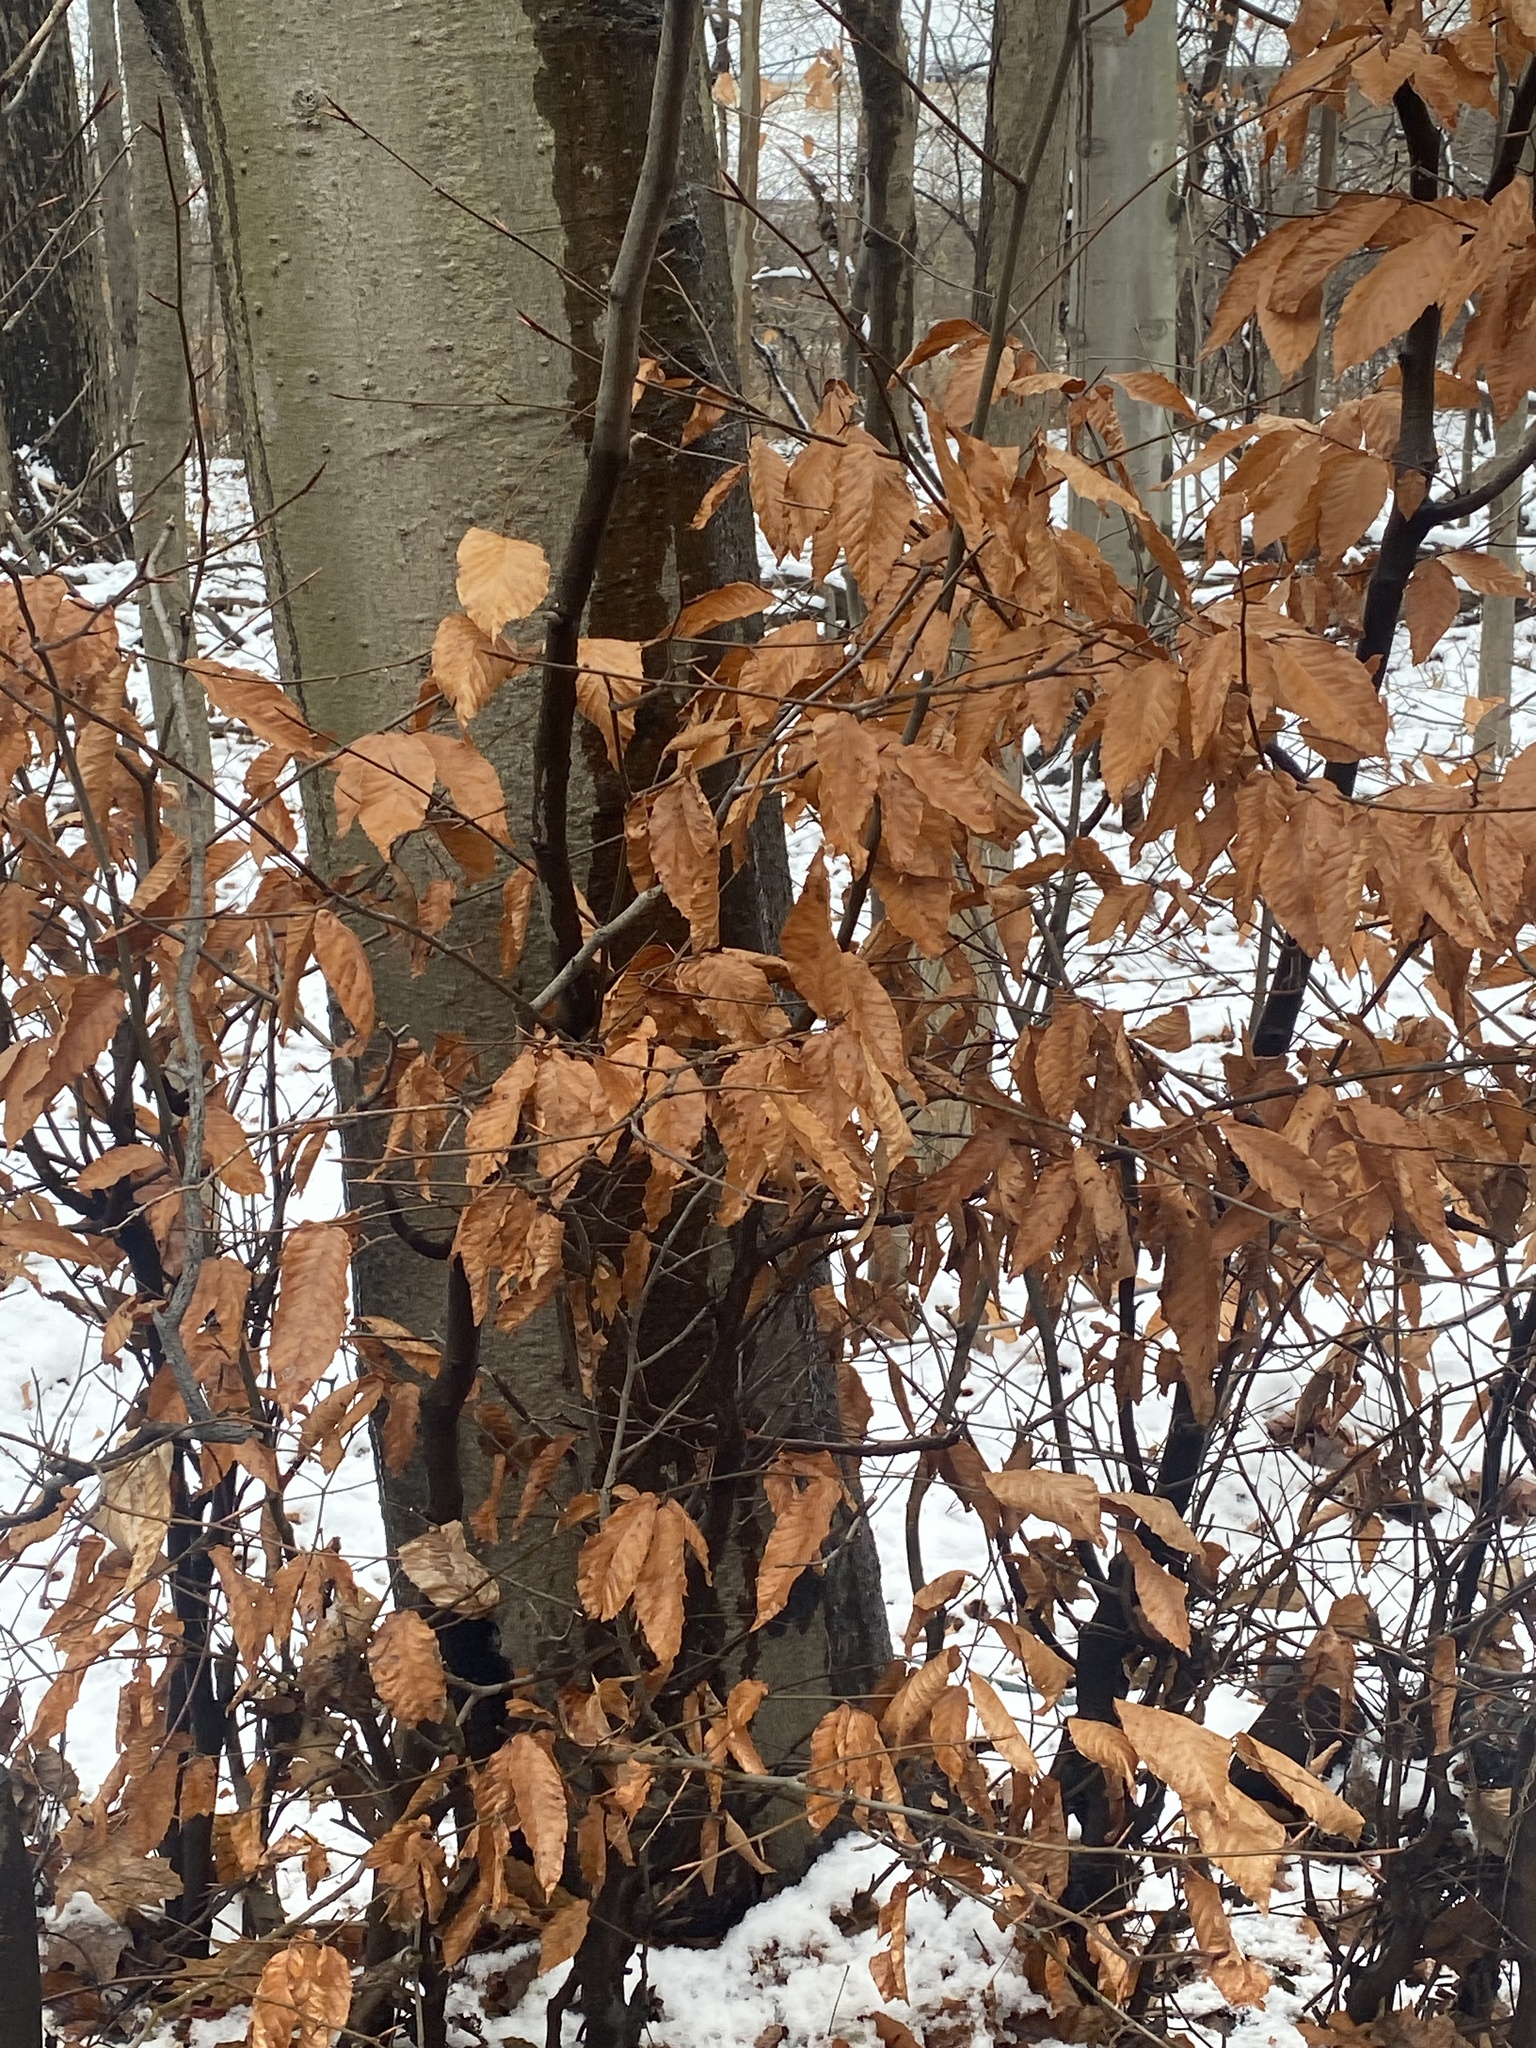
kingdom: Plantae
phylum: Tracheophyta
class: Magnoliopsida
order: Fagales
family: Fagaceae
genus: Fagus
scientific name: Fagus grandifolia
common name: American beech
